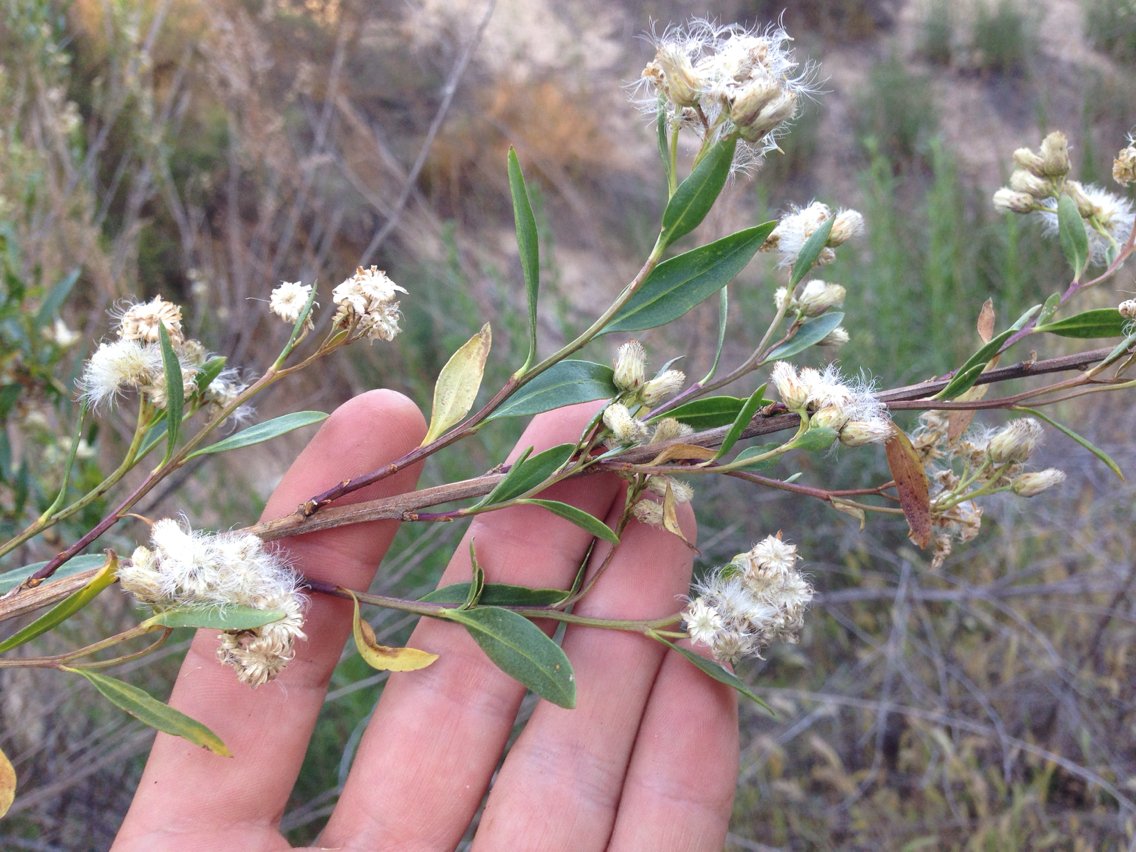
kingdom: Plantae
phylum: Tracheophyta
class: Magnoliopsida
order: Asterales
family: Asteraceae
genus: Baccharis
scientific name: Baccharis salicifolia
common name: Sticky baccharis
